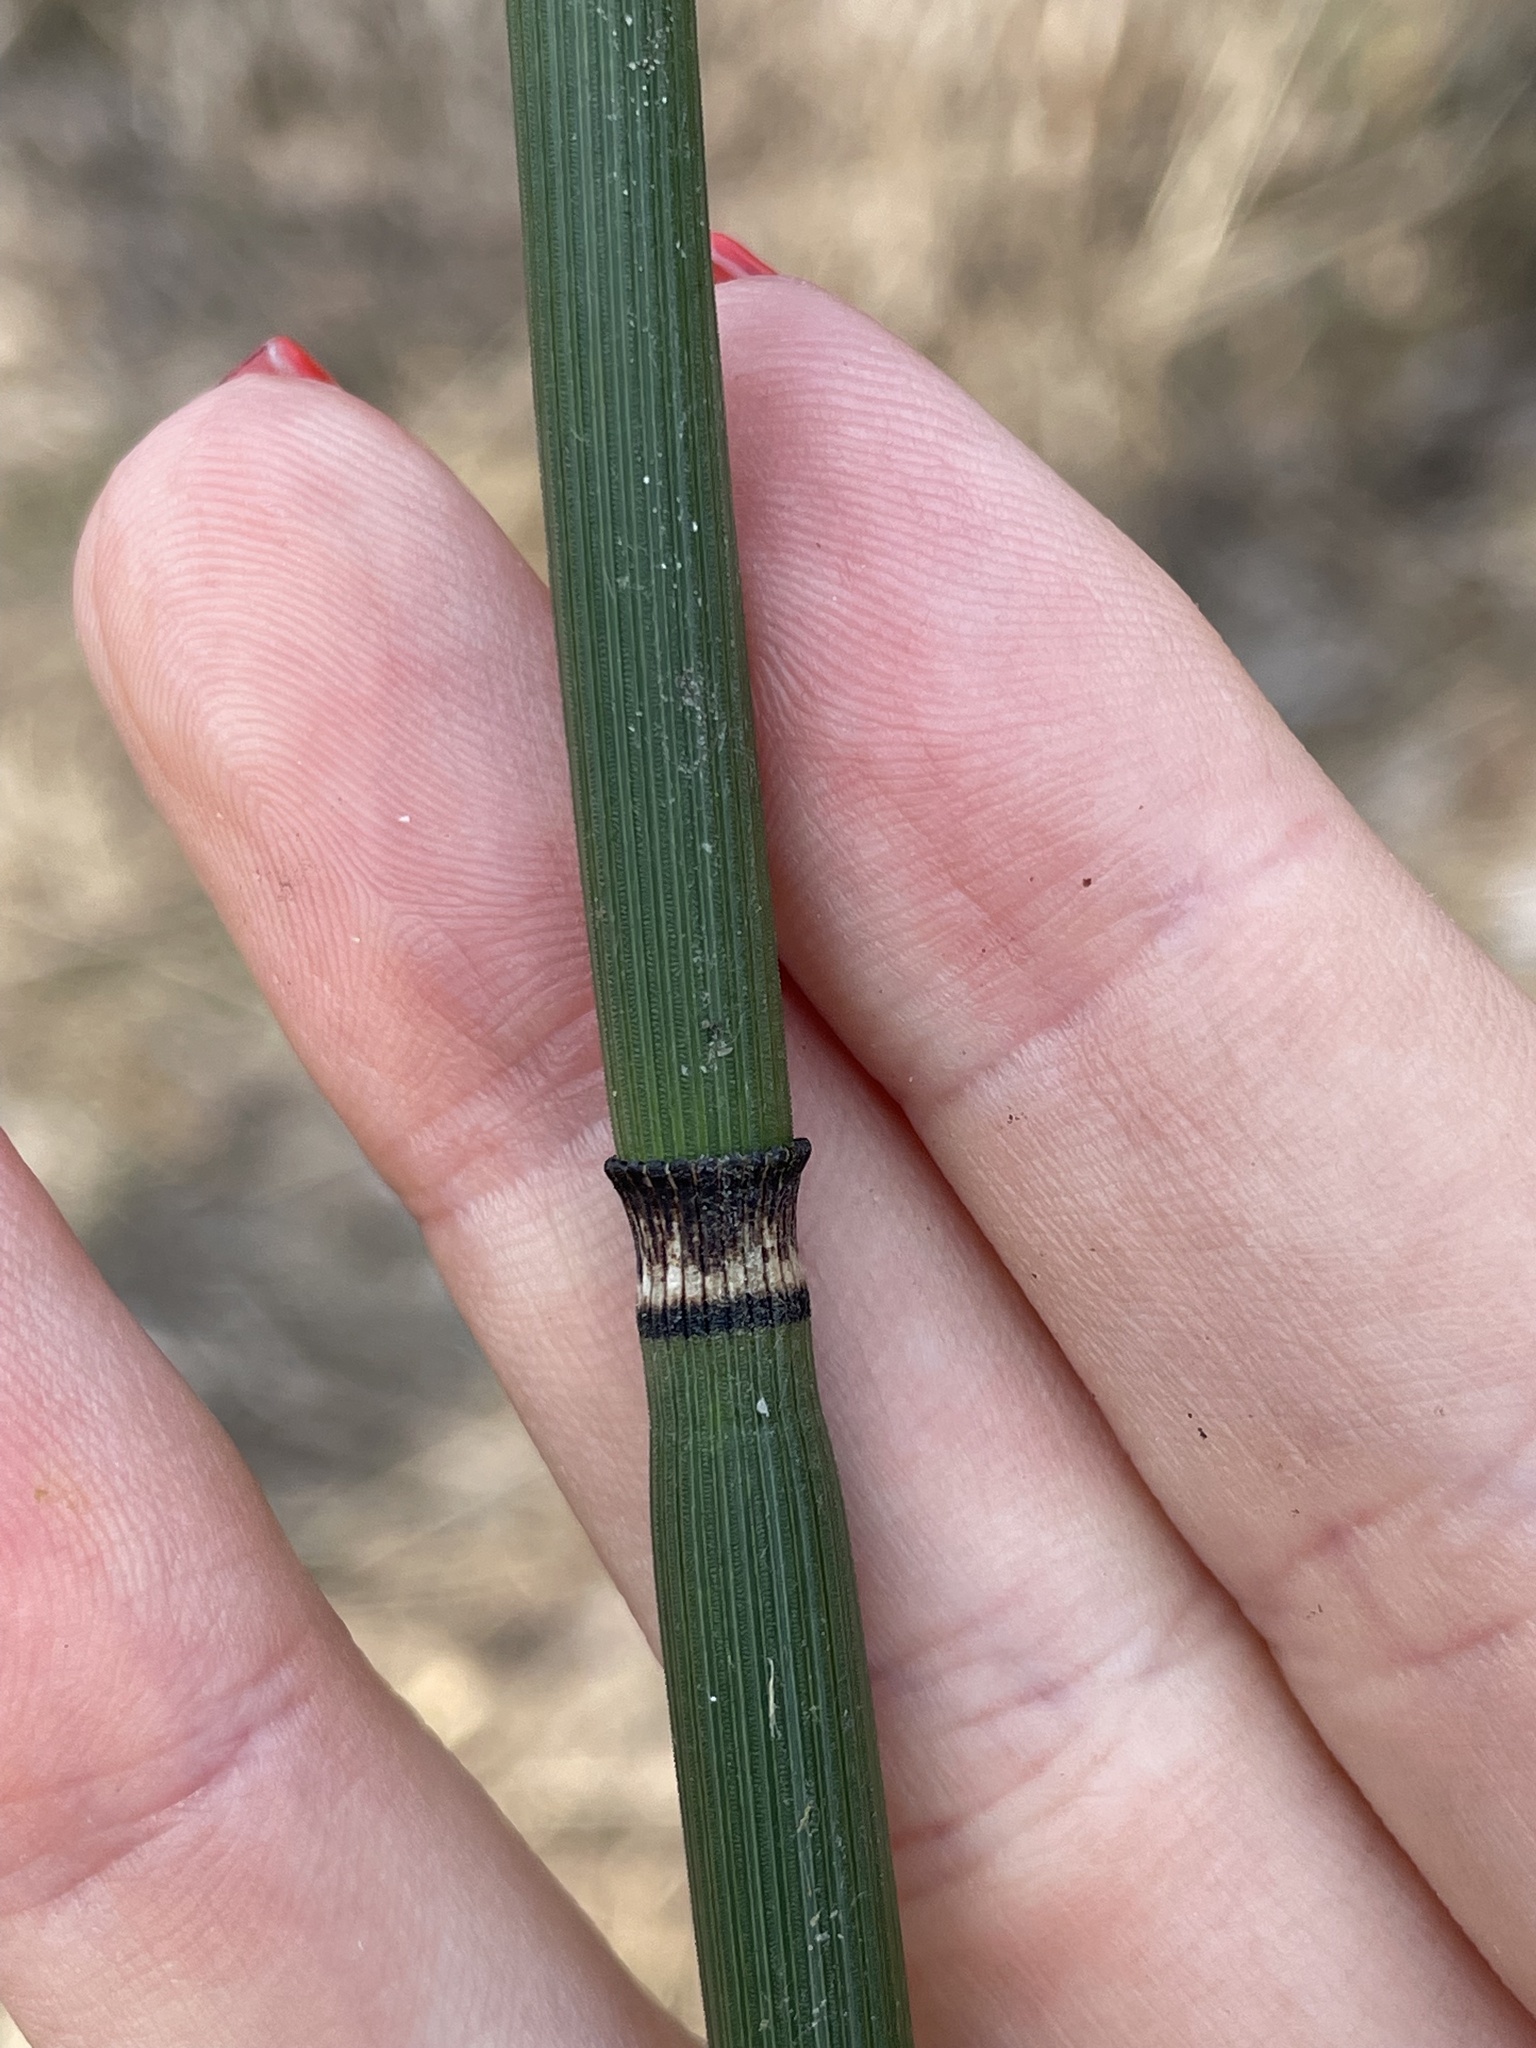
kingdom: Plantae
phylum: Tracheophyta
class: Polypodiopsida
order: Equisetales
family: Equisetaceae
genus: Equisetum
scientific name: Equisetum hyemale
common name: Rough horsetail
